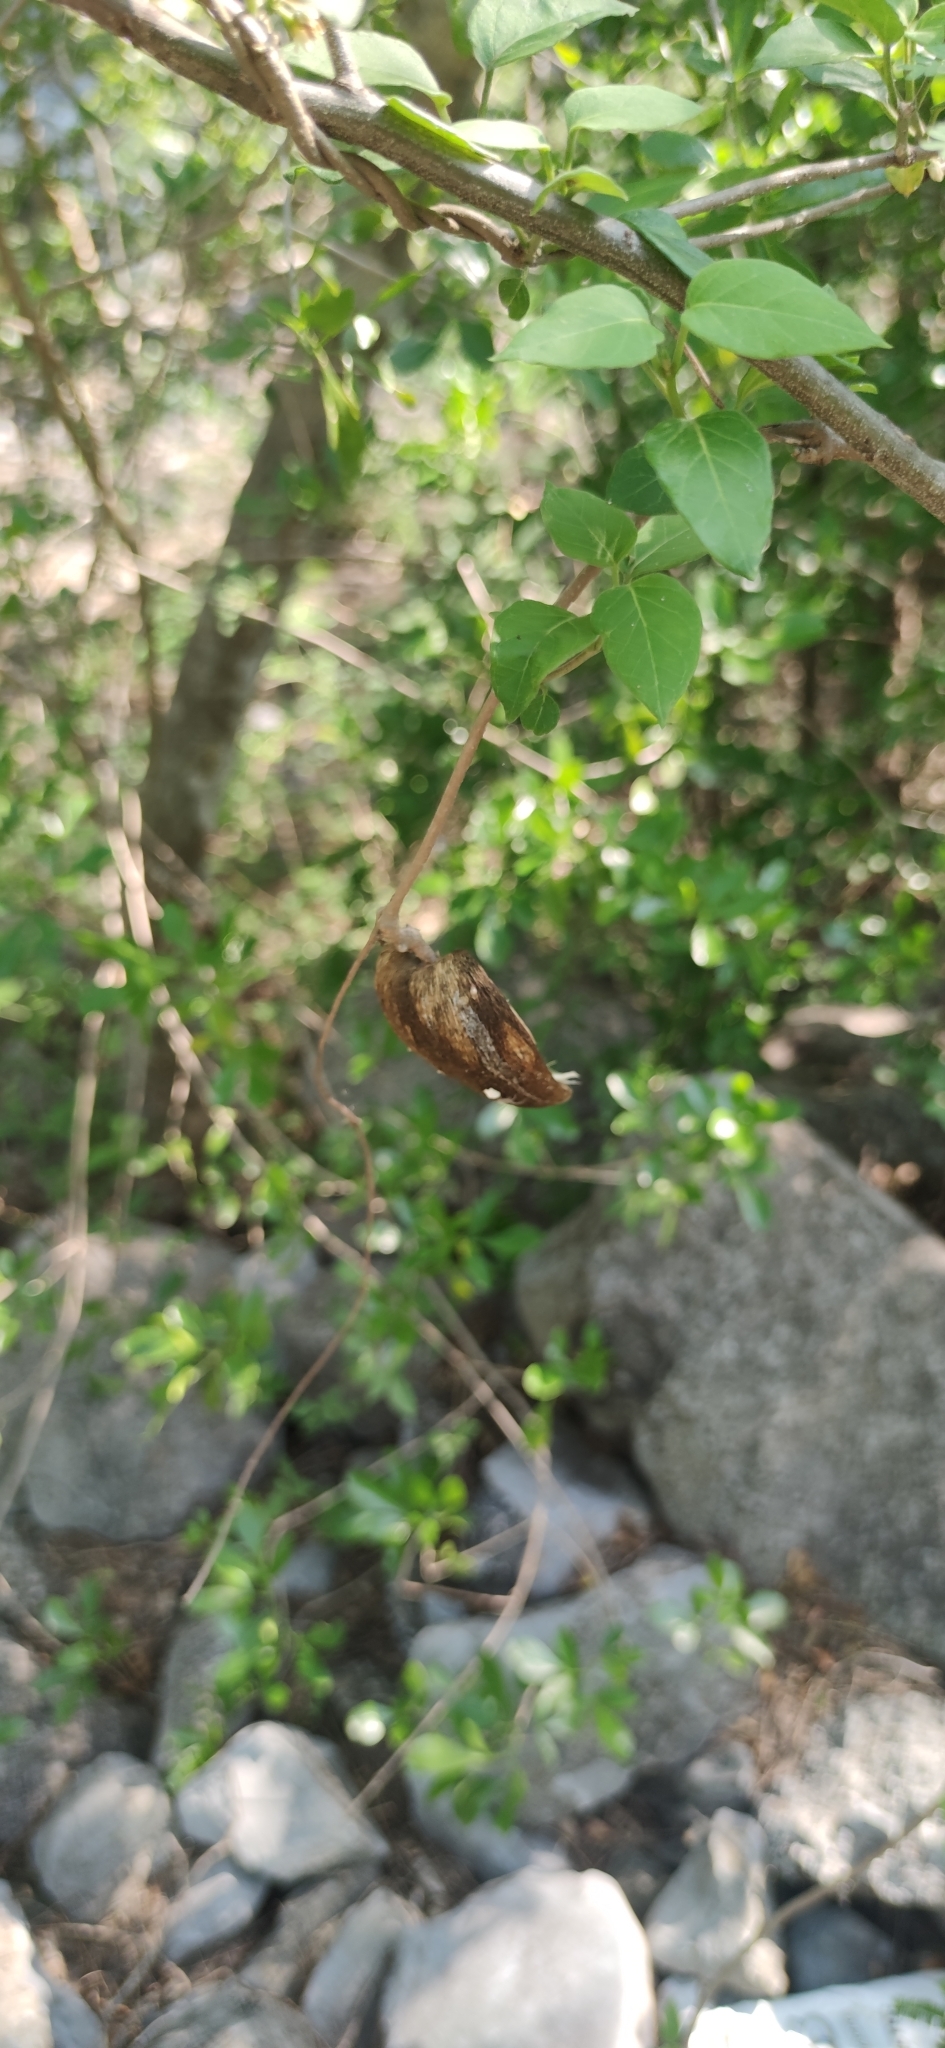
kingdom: Plantae
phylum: Tracheophyta
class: Magnoliopsida
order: Gentianales
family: Apocynaceae
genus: Ruehssia
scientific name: Ruehssia coulteri
